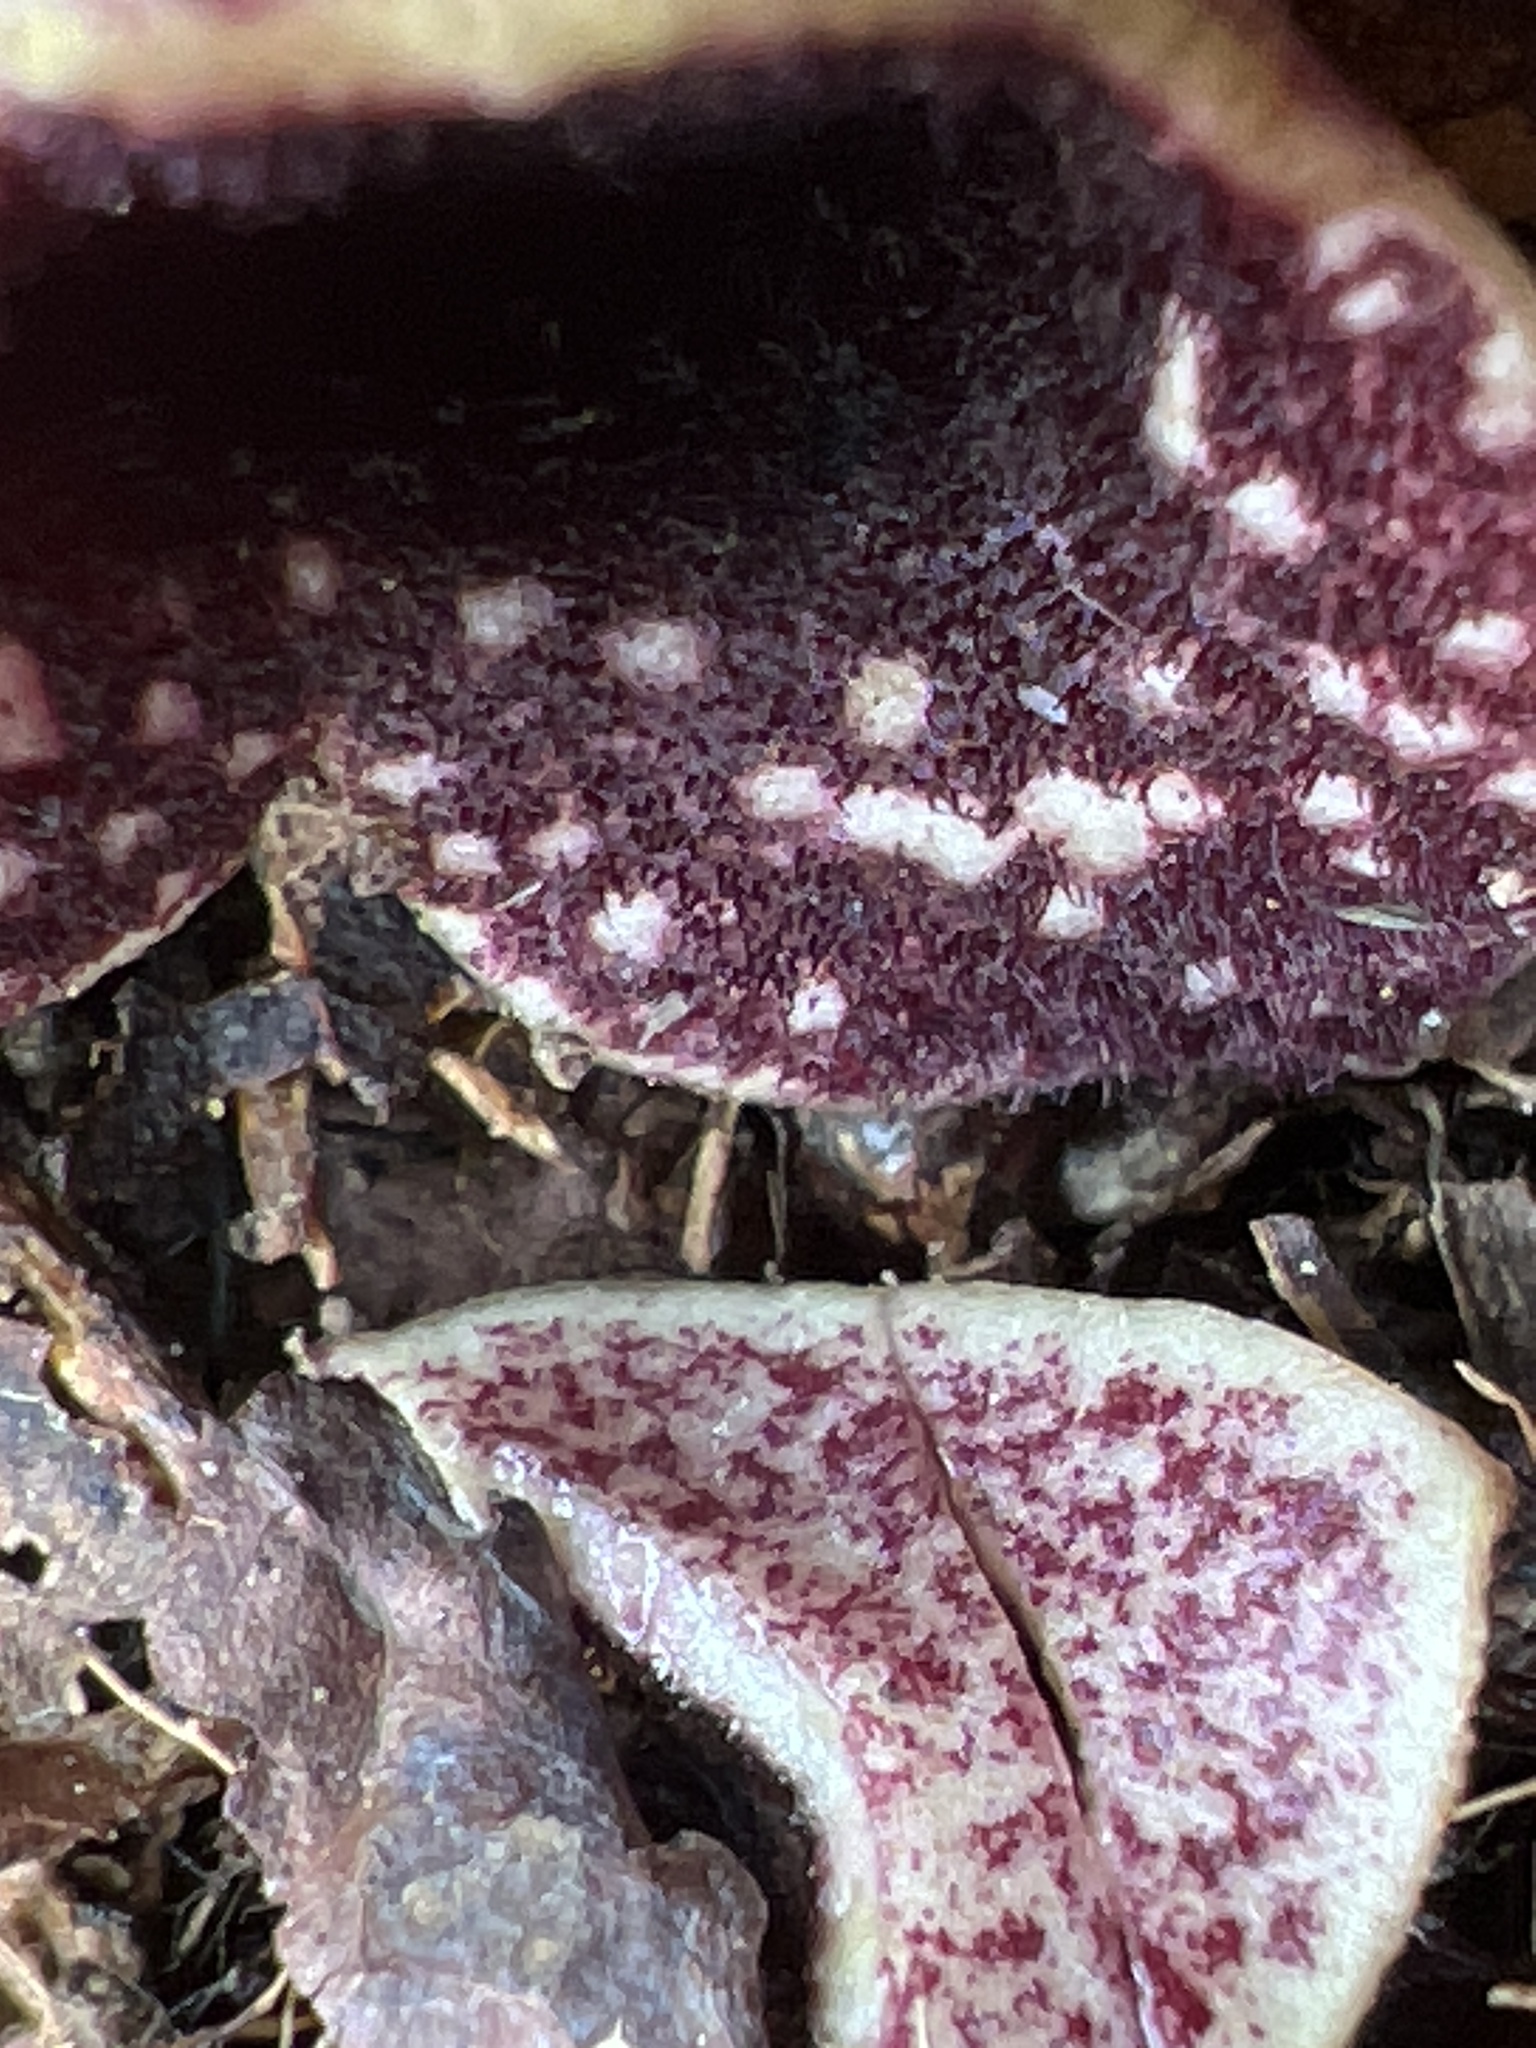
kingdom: Plantae
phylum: Tracheophyta
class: Magnoliopsida
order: Piperales
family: Aristolochiaceae
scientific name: Aristolochiaceae
